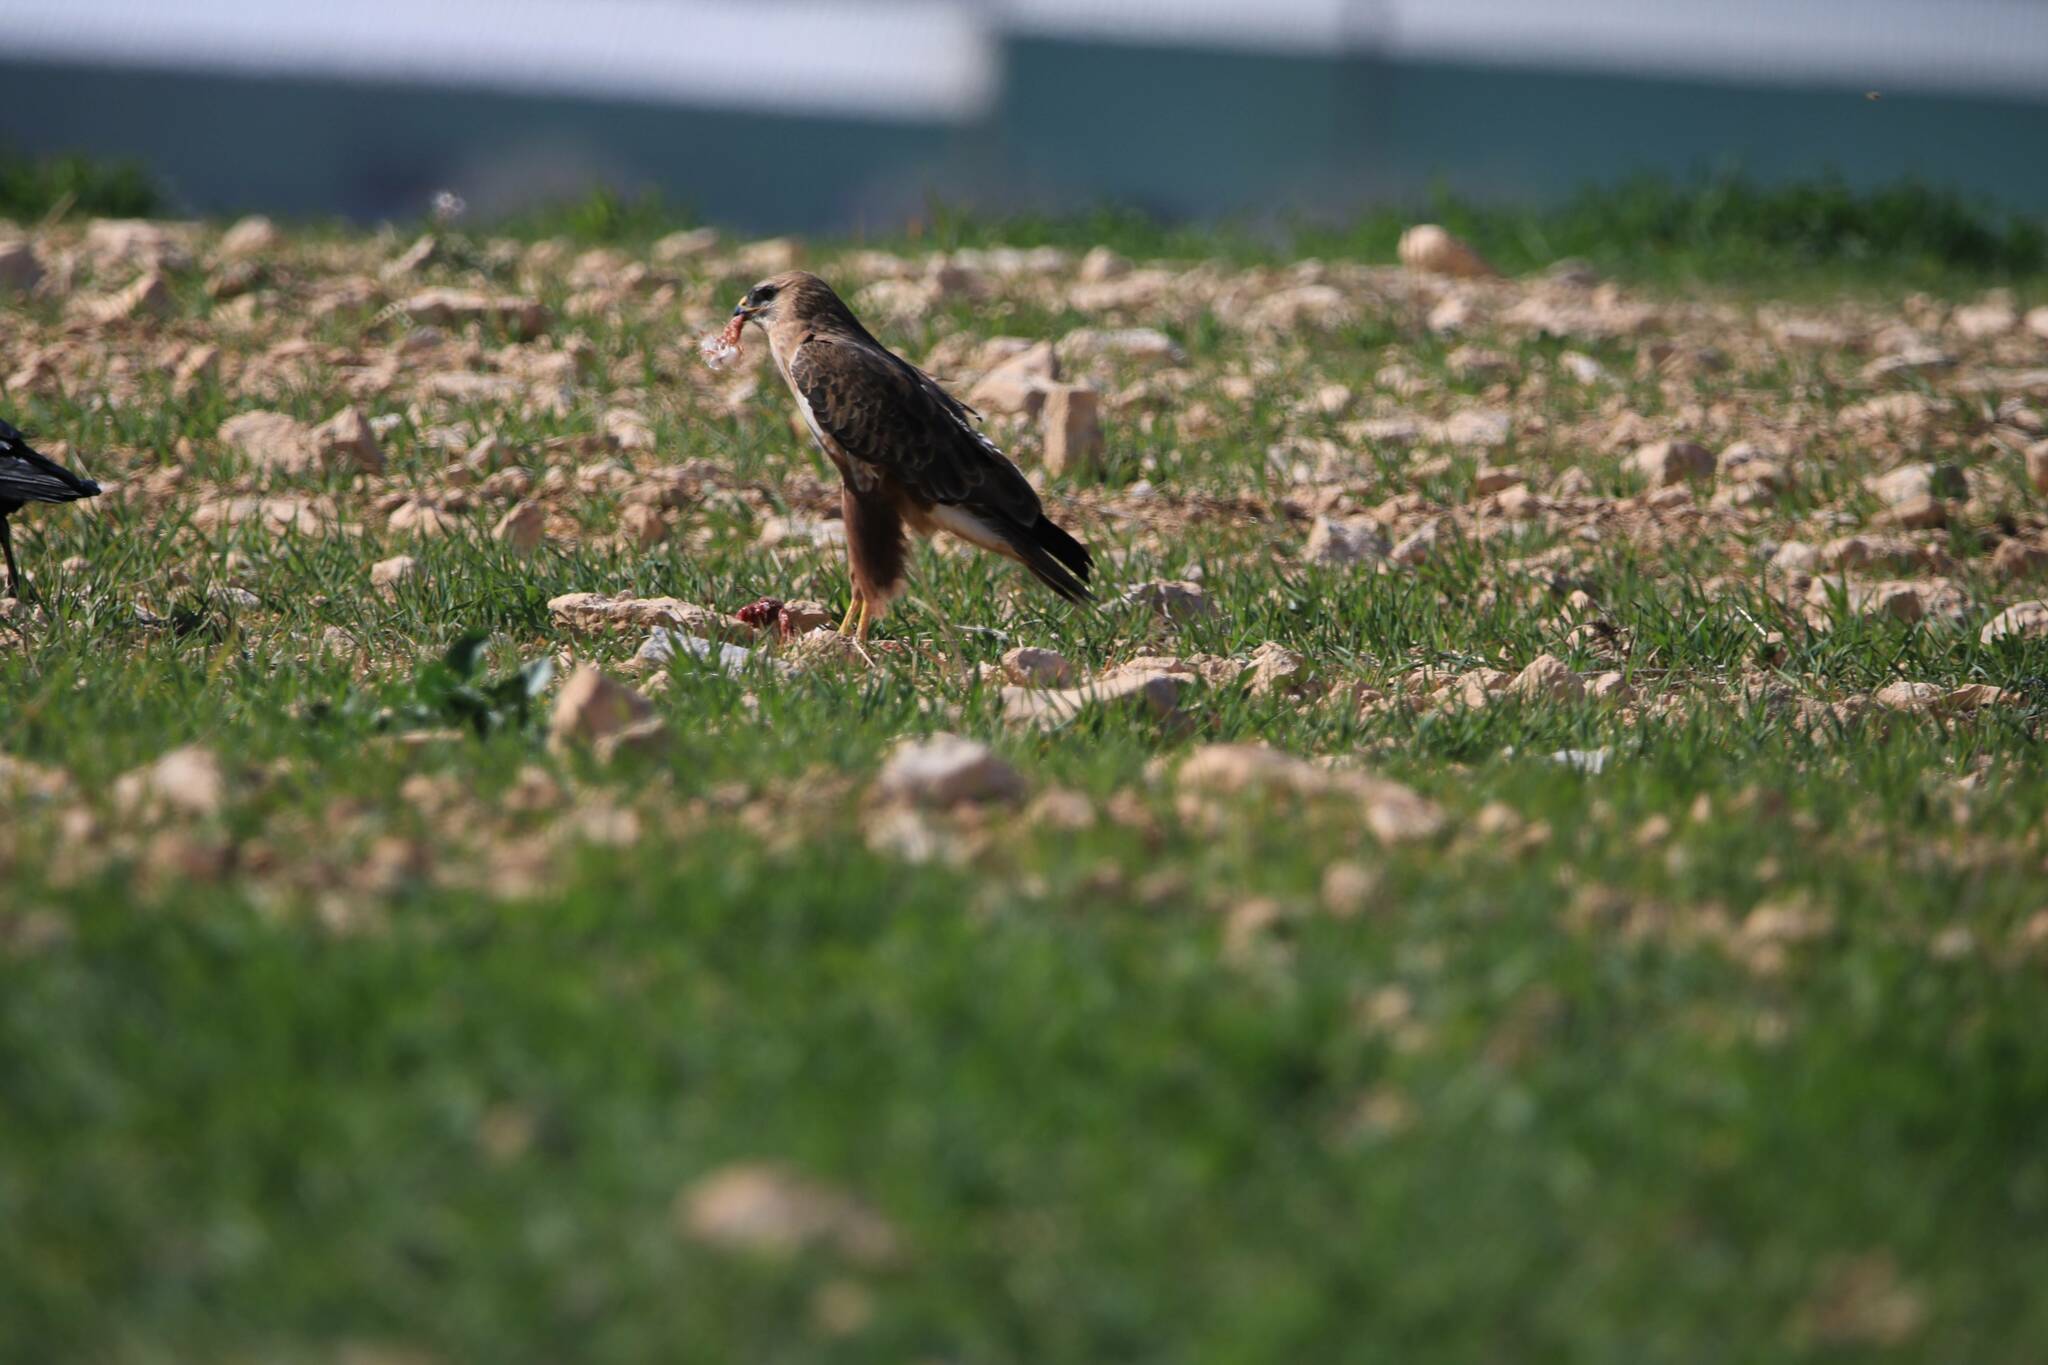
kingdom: Animalia
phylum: Chordata
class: Aves
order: Accipitriformes
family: Accipitridae
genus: Buteo
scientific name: Buteo rufinus
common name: Long-legged buzzard
